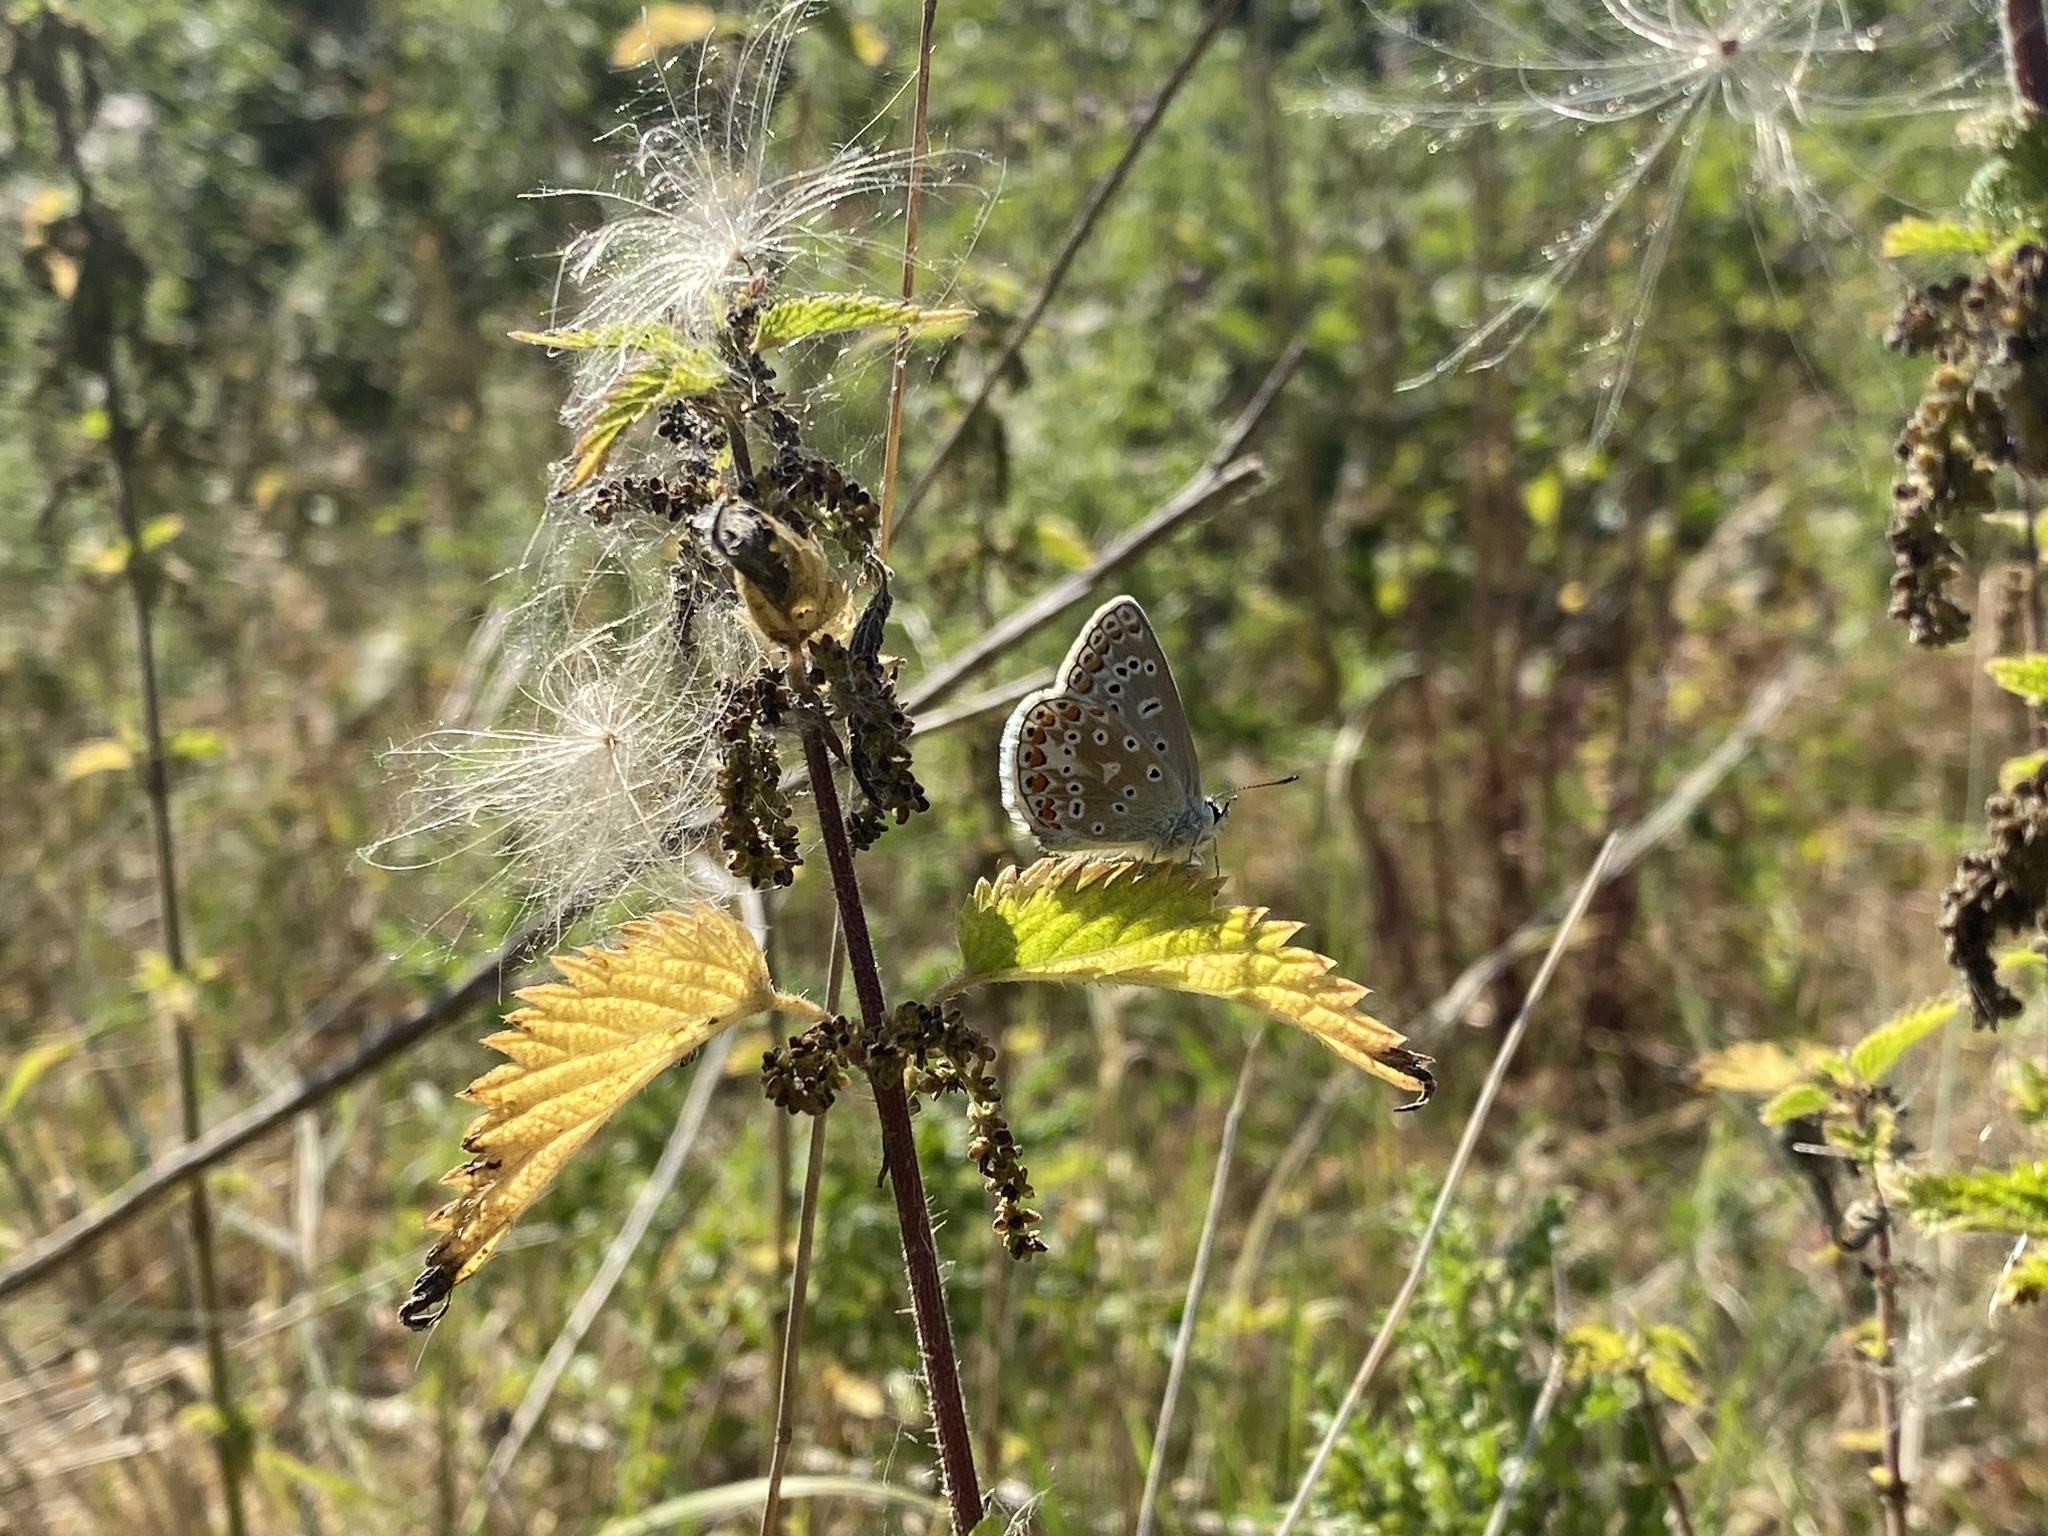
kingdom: Animalia
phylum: Arthropoda
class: Insecta
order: Lepidoptera
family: Lycaenidae
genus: Polyommatus
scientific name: Polyommatus icarus
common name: Common blue
